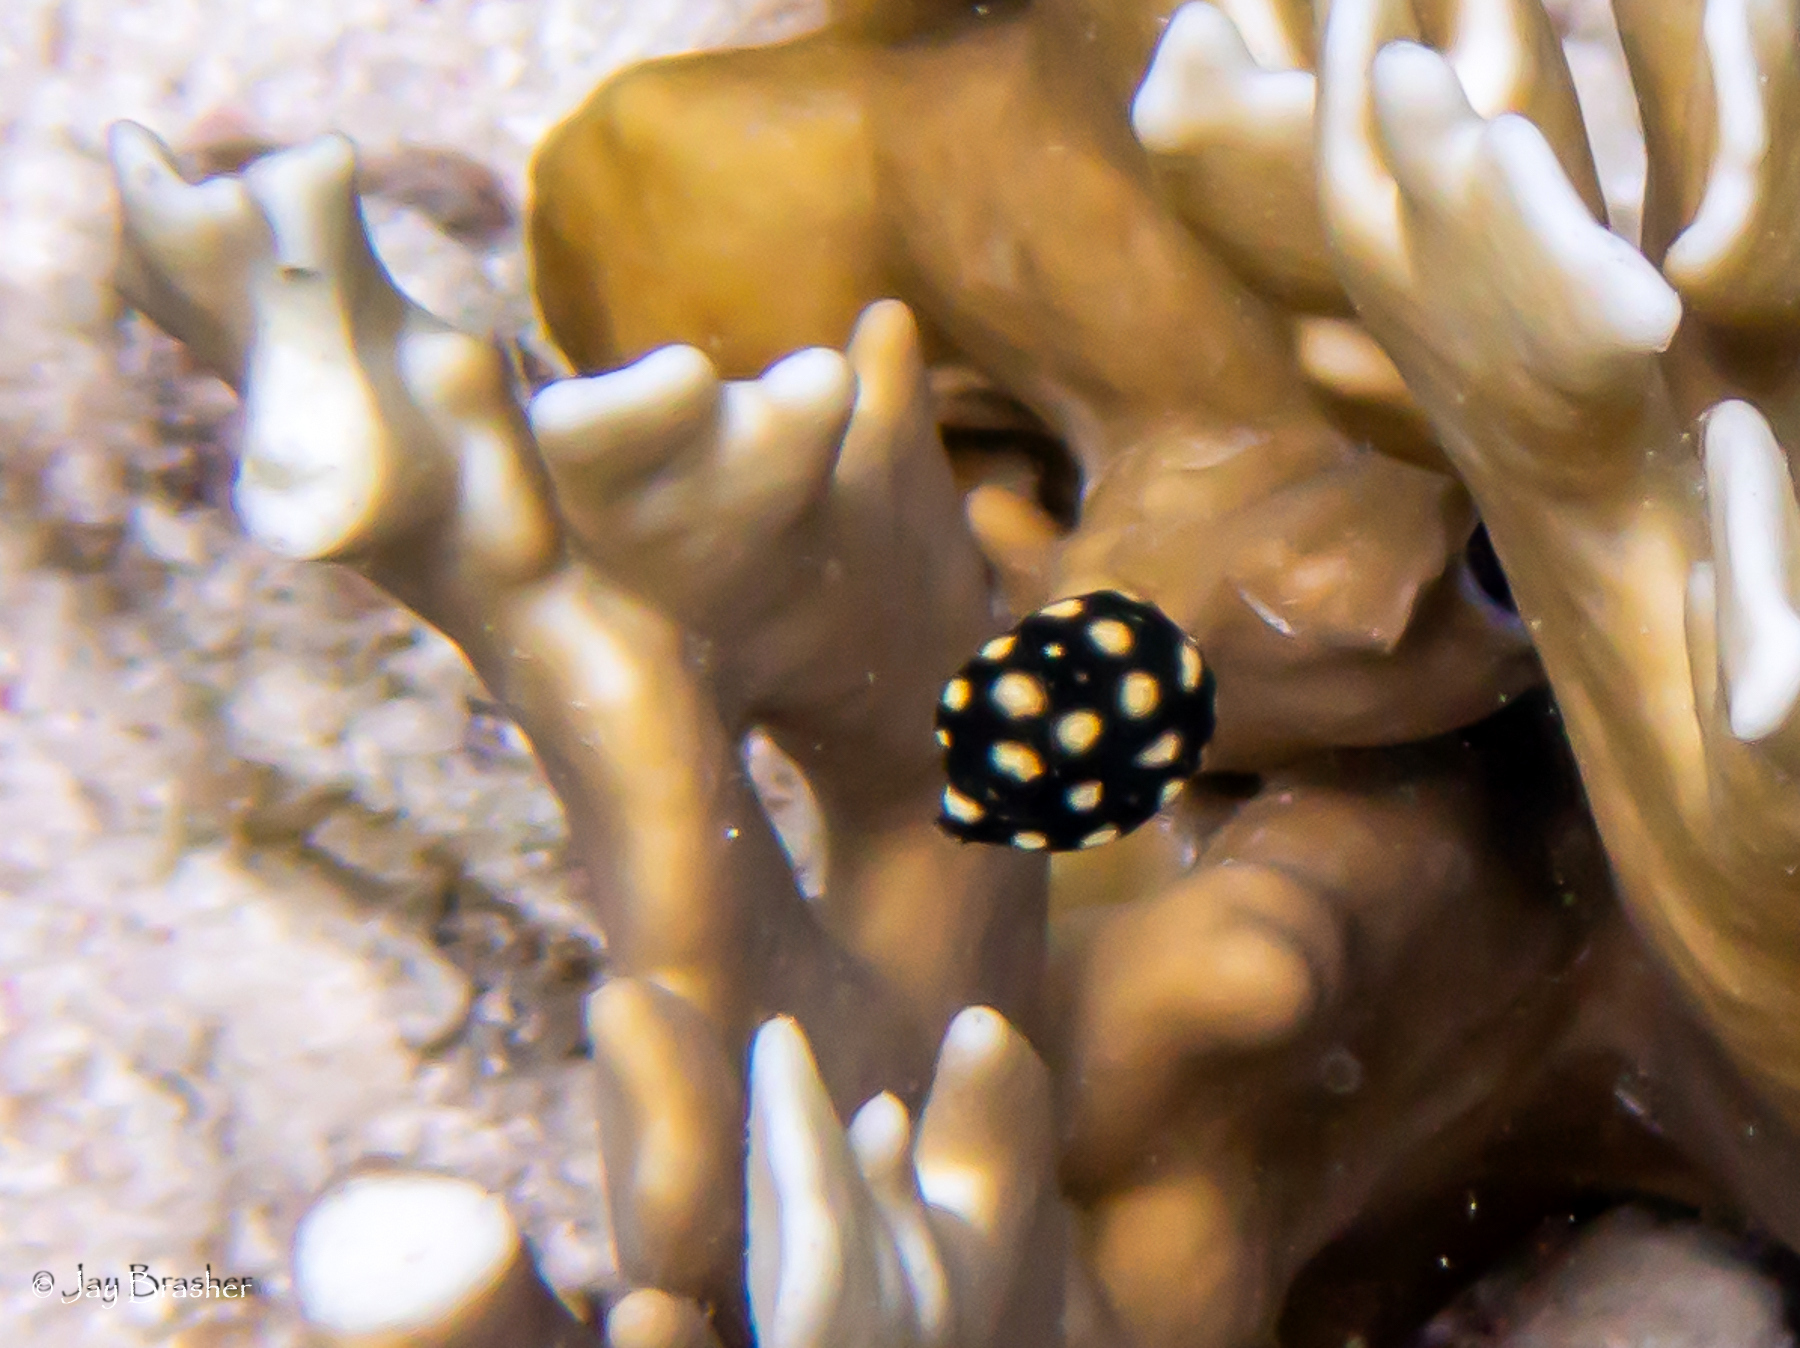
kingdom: Animalia
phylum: Chordata
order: Tetraodontiformes
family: Ostraciidae
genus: Lactophrys
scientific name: Lactophrys triqueter
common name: Smooth trunkfish
